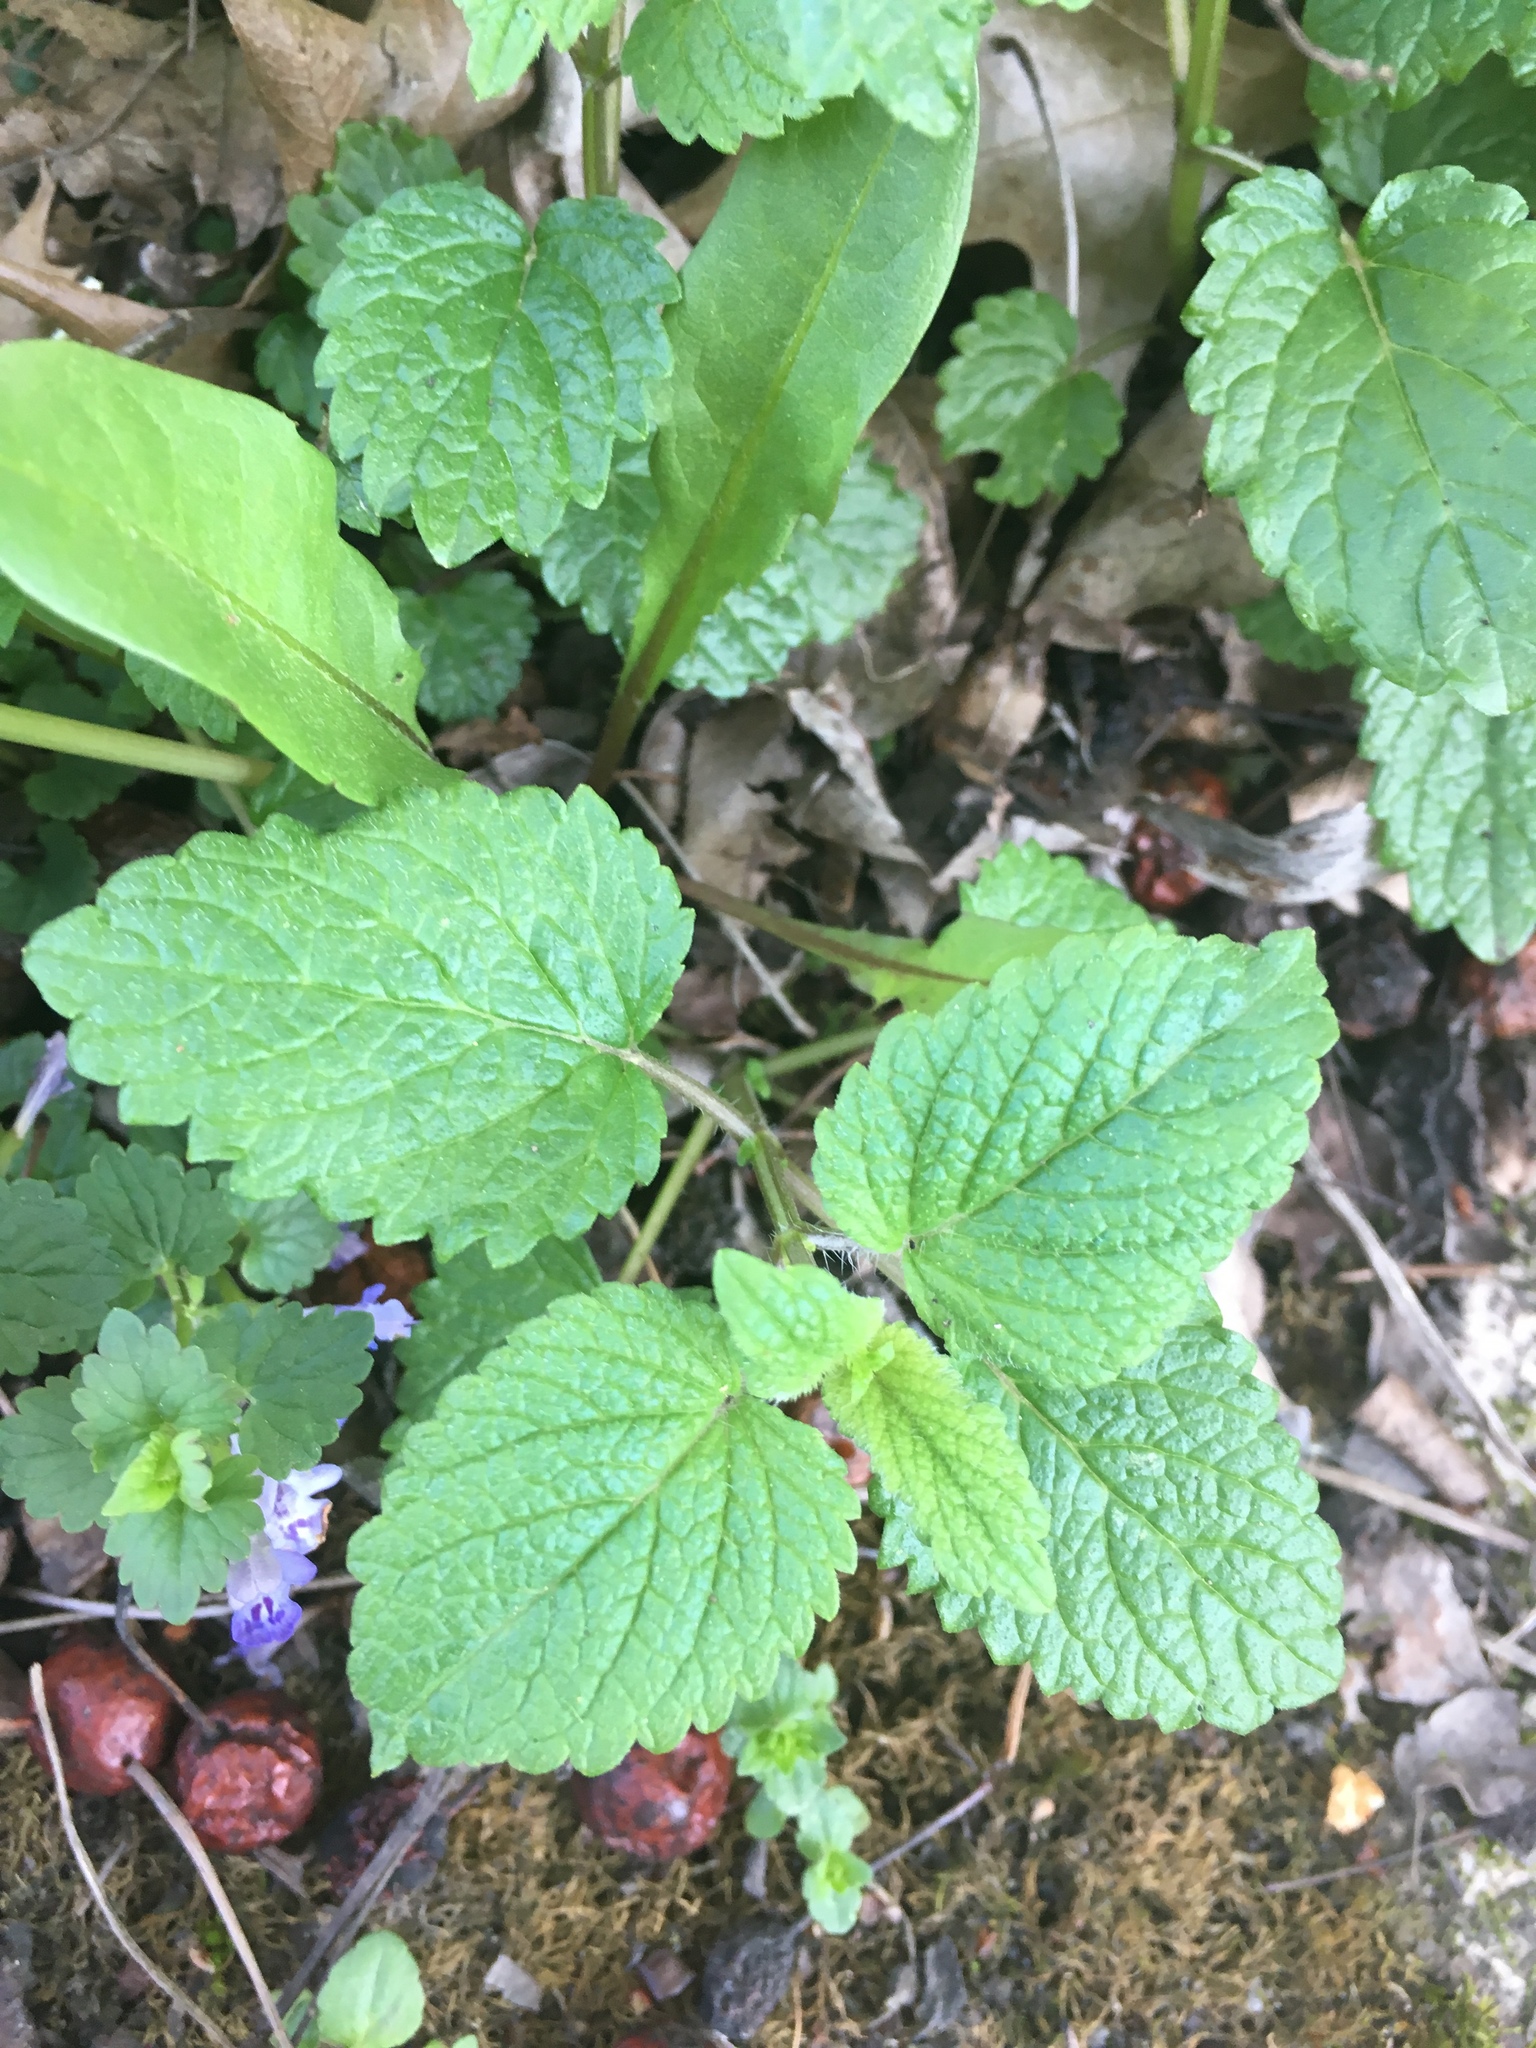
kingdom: Plantae
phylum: Tracheophyta
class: Magnoliopsida
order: Lamiales
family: Lamiaceae
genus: Melissa
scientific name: Melissa officinalis
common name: Balm
